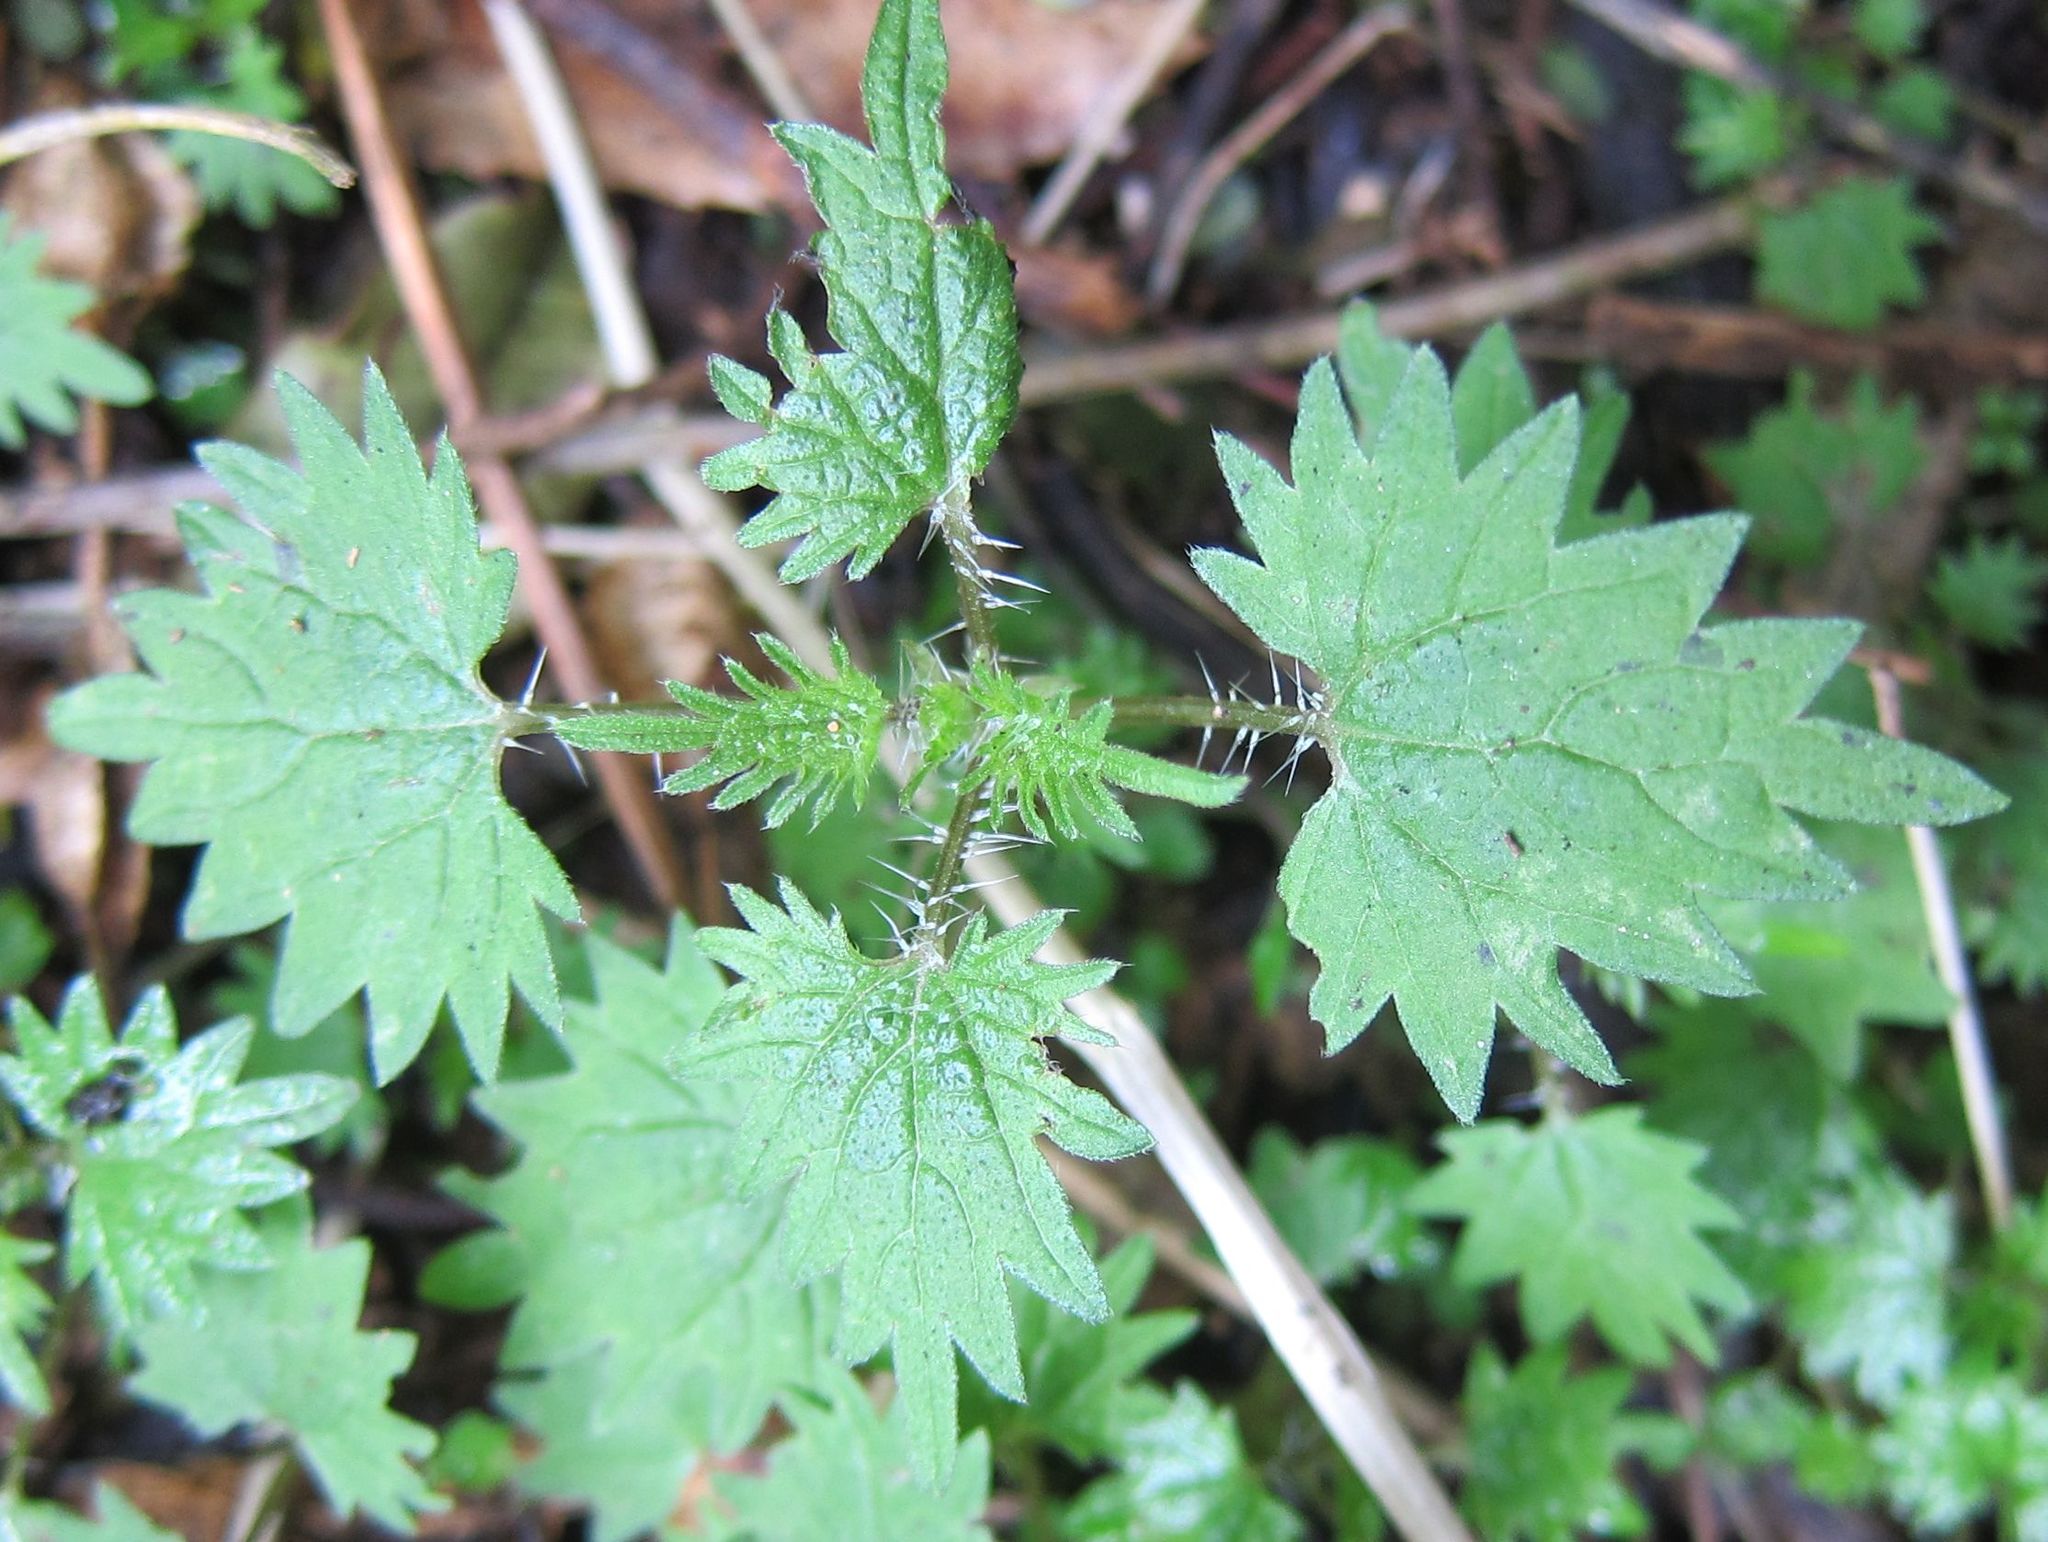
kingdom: Plantae
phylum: Tracheophyta
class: Magnoliopsida
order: Rosales
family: Urticaceae
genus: Urtica
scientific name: Urtica sykesii
